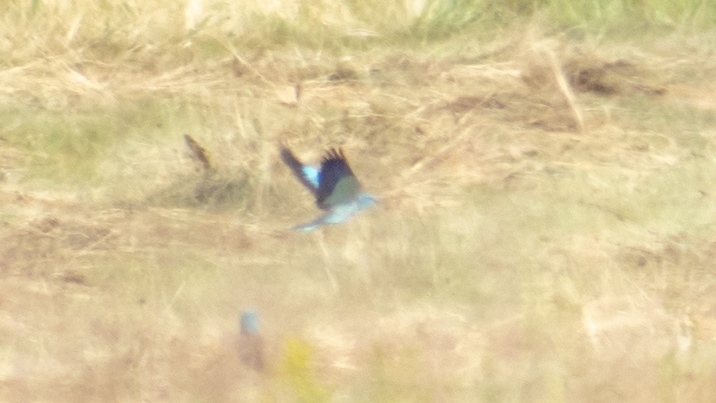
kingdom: Animalia
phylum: Chordata
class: Aves
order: Coraciiformes
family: Coraciidae
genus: Coracias
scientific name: Coracias garrulus
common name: European roller
